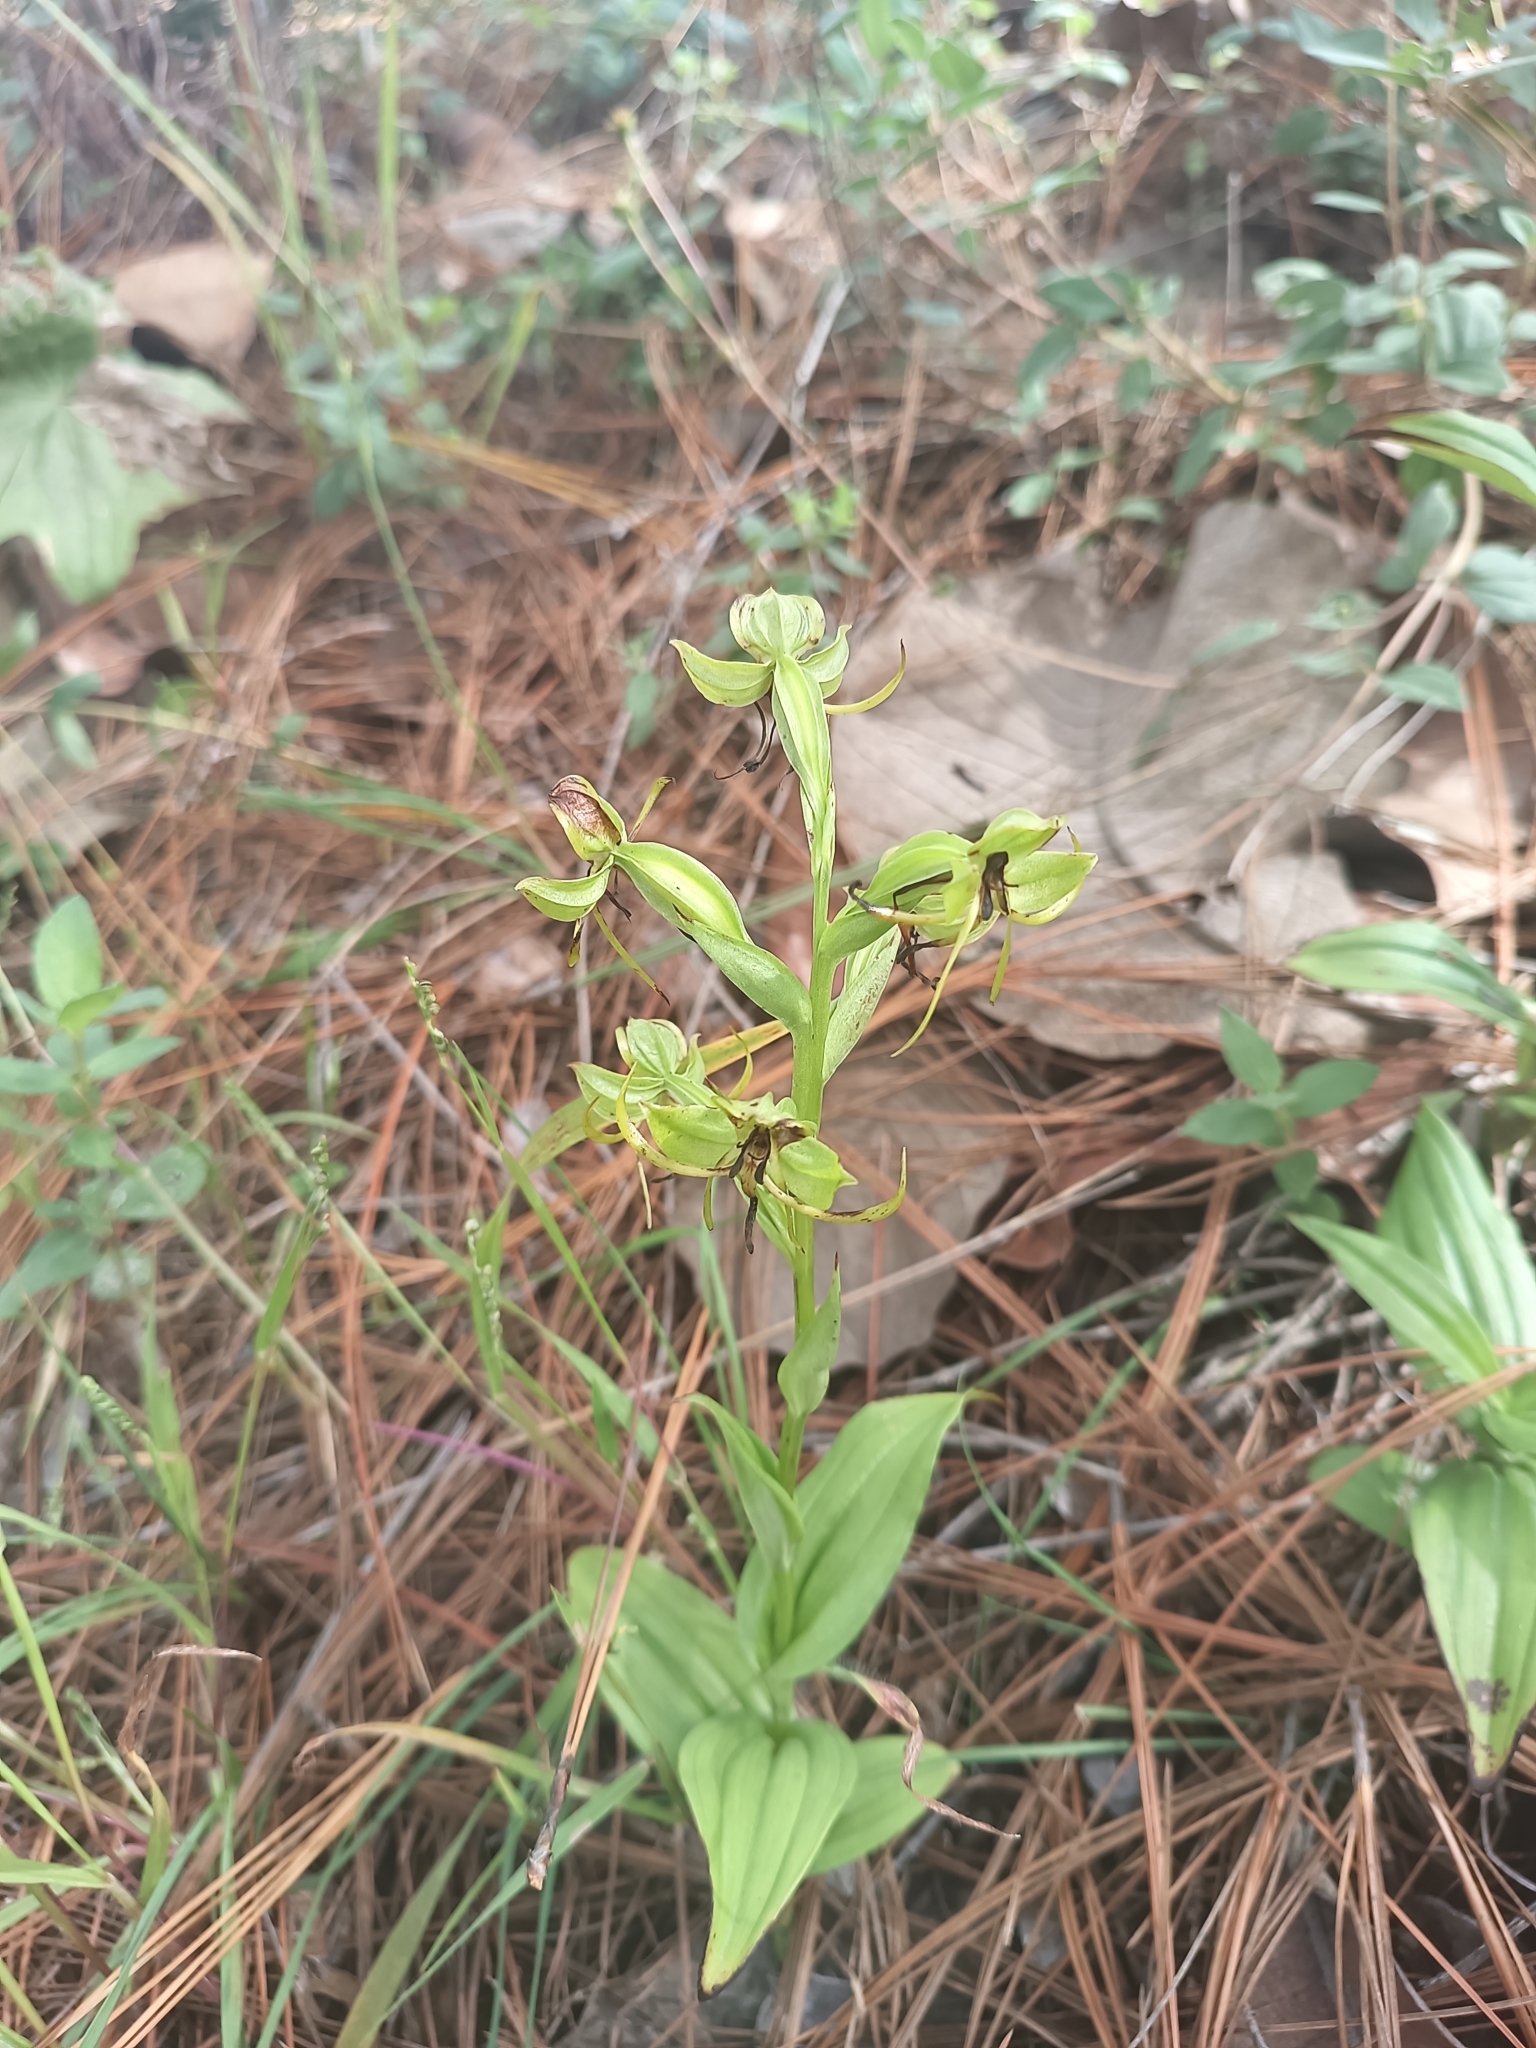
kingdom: Plantae
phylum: Tracheophyta
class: Liliopsida
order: Asparagales
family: Orchidaceae
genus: Habenaria
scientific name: Habenaria jaliscana
